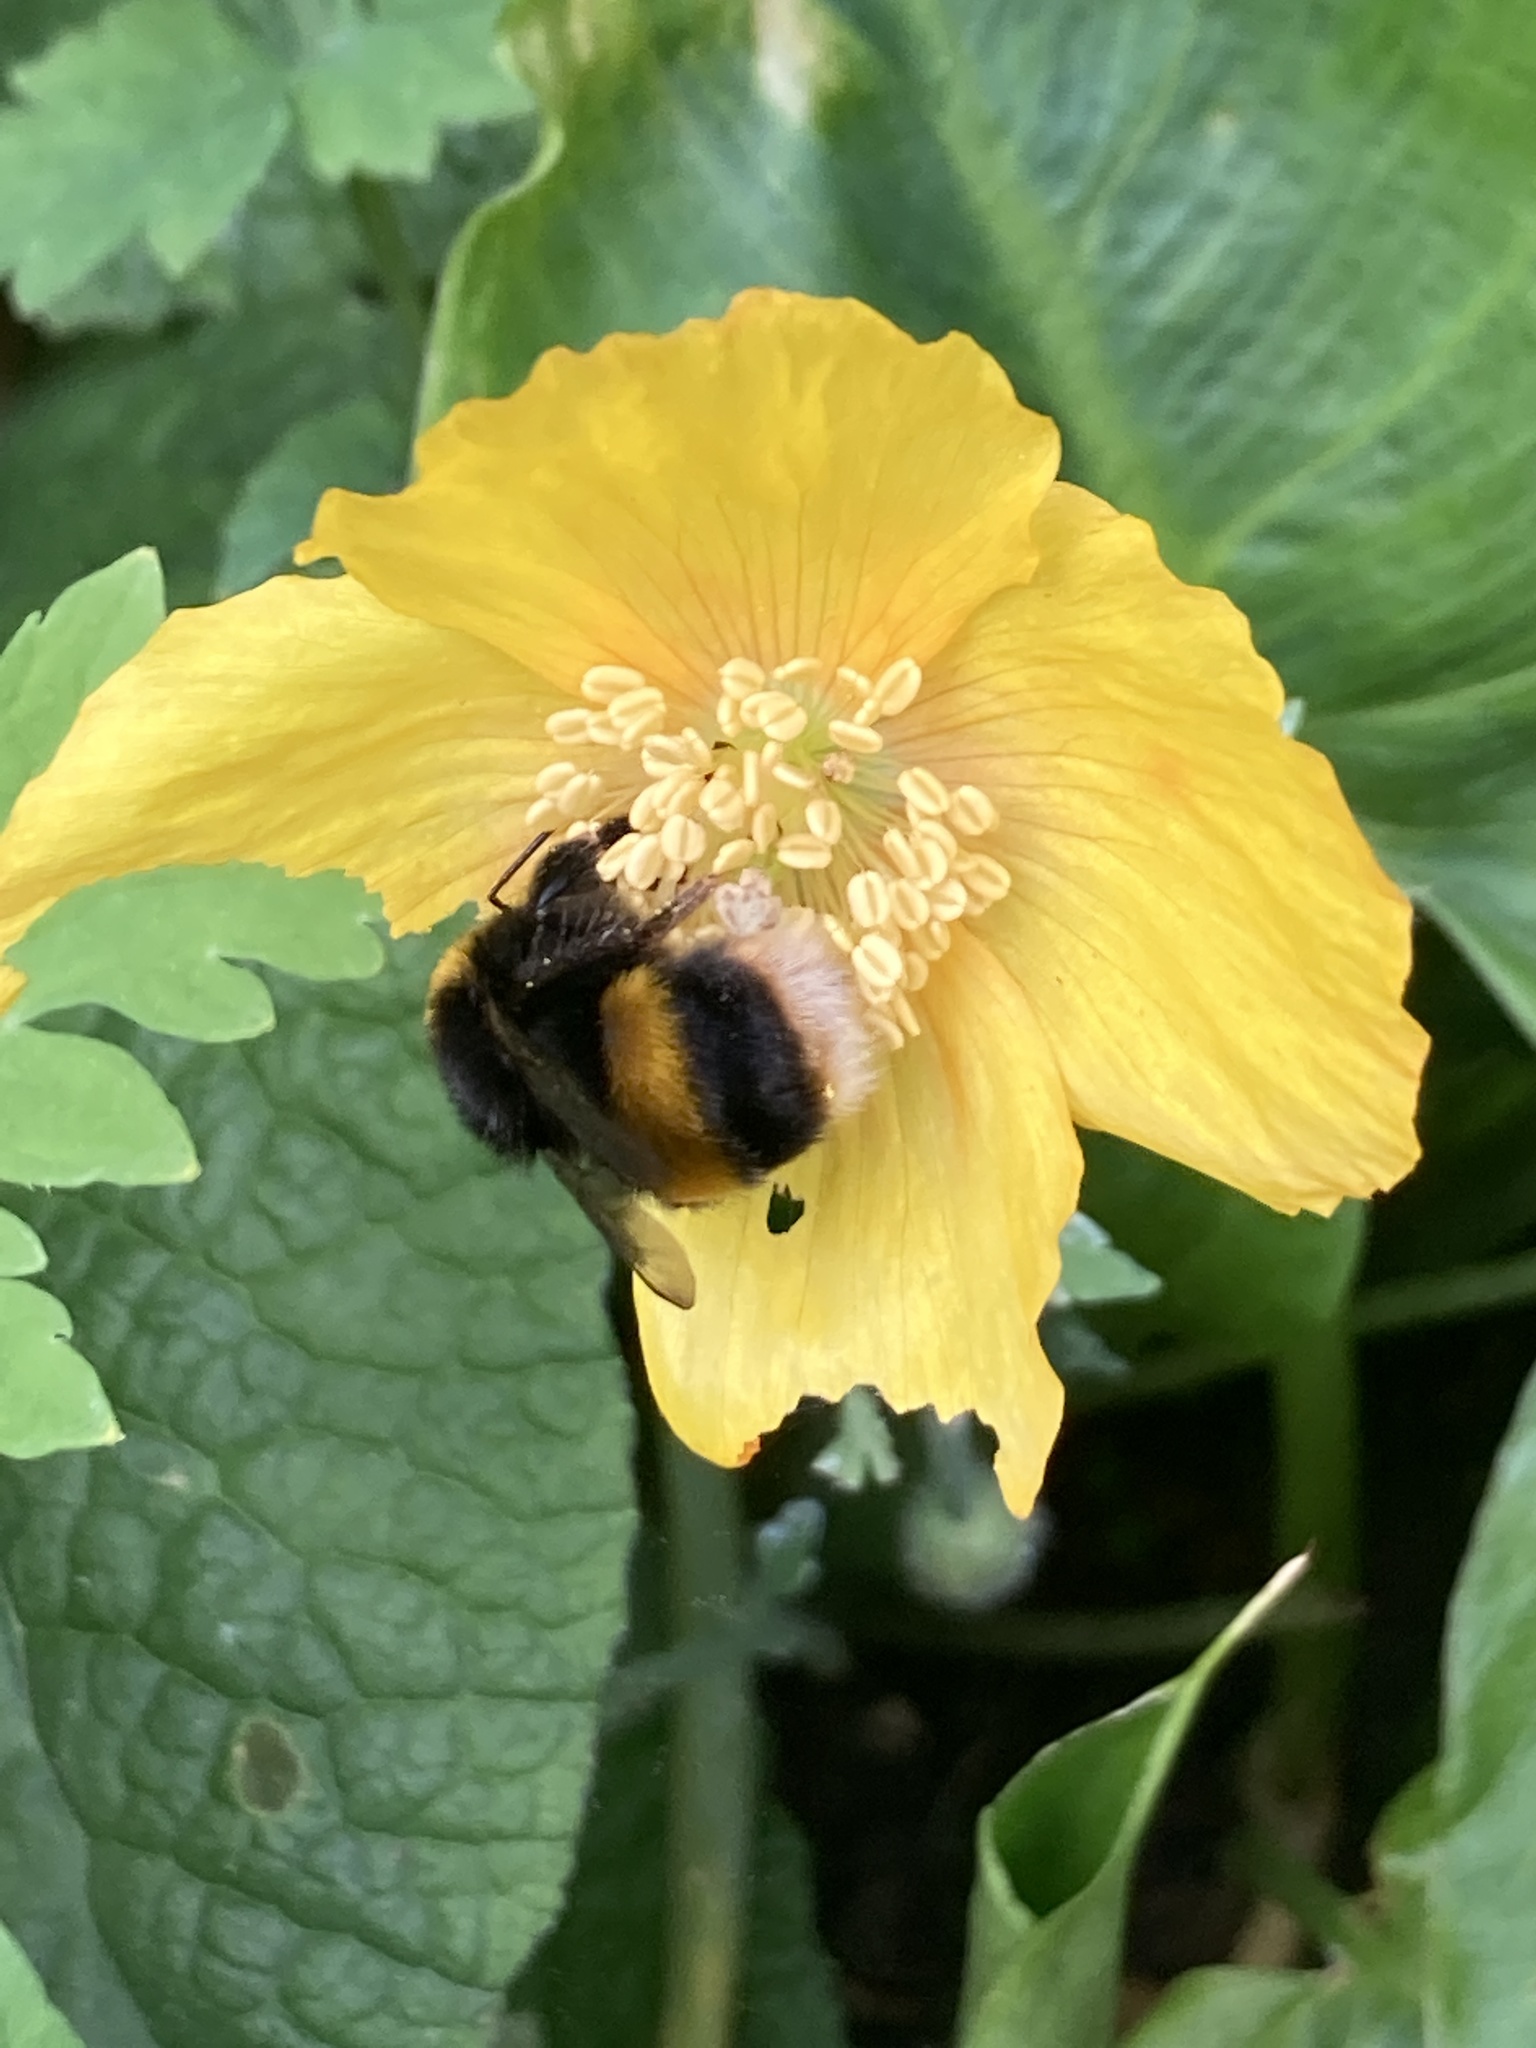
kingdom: Animalia
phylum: Arthropoda
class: Insecta
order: Hymenoptera
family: Apidae
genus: Bombus
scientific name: Bombus terrestris
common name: Buff-tailed bumblebee
